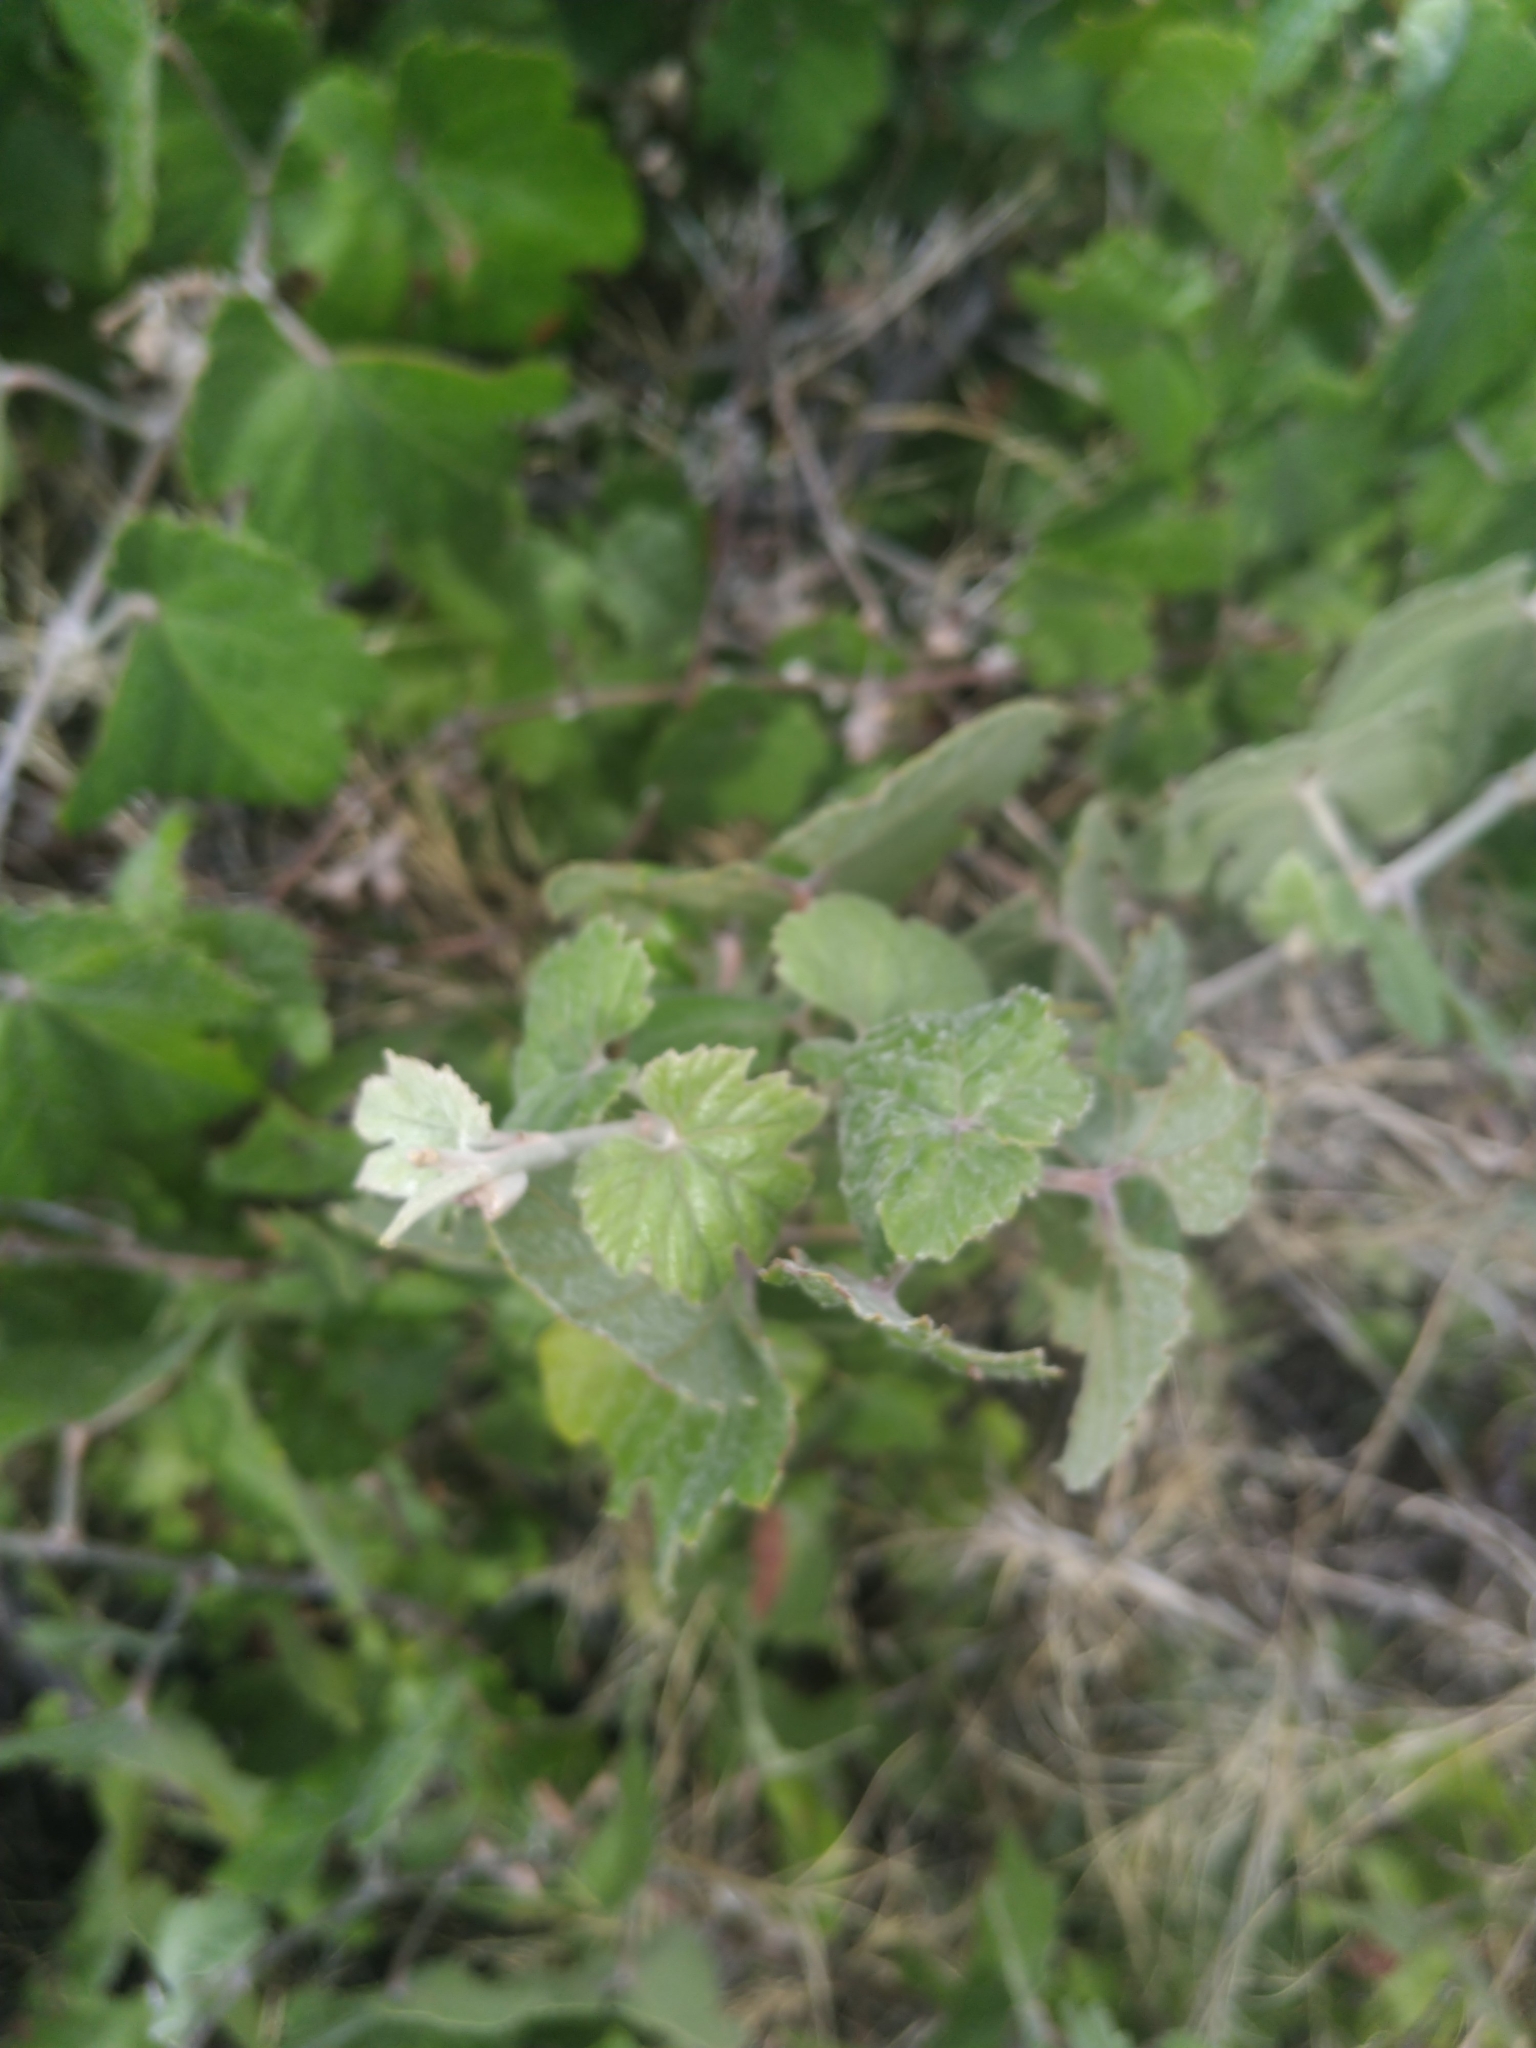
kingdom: Plantae
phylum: Tracheophyta
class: Magnoliopsida
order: Vitales
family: Vitaceae
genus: Vitis
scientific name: Vitis arizonica
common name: Canyon grape
